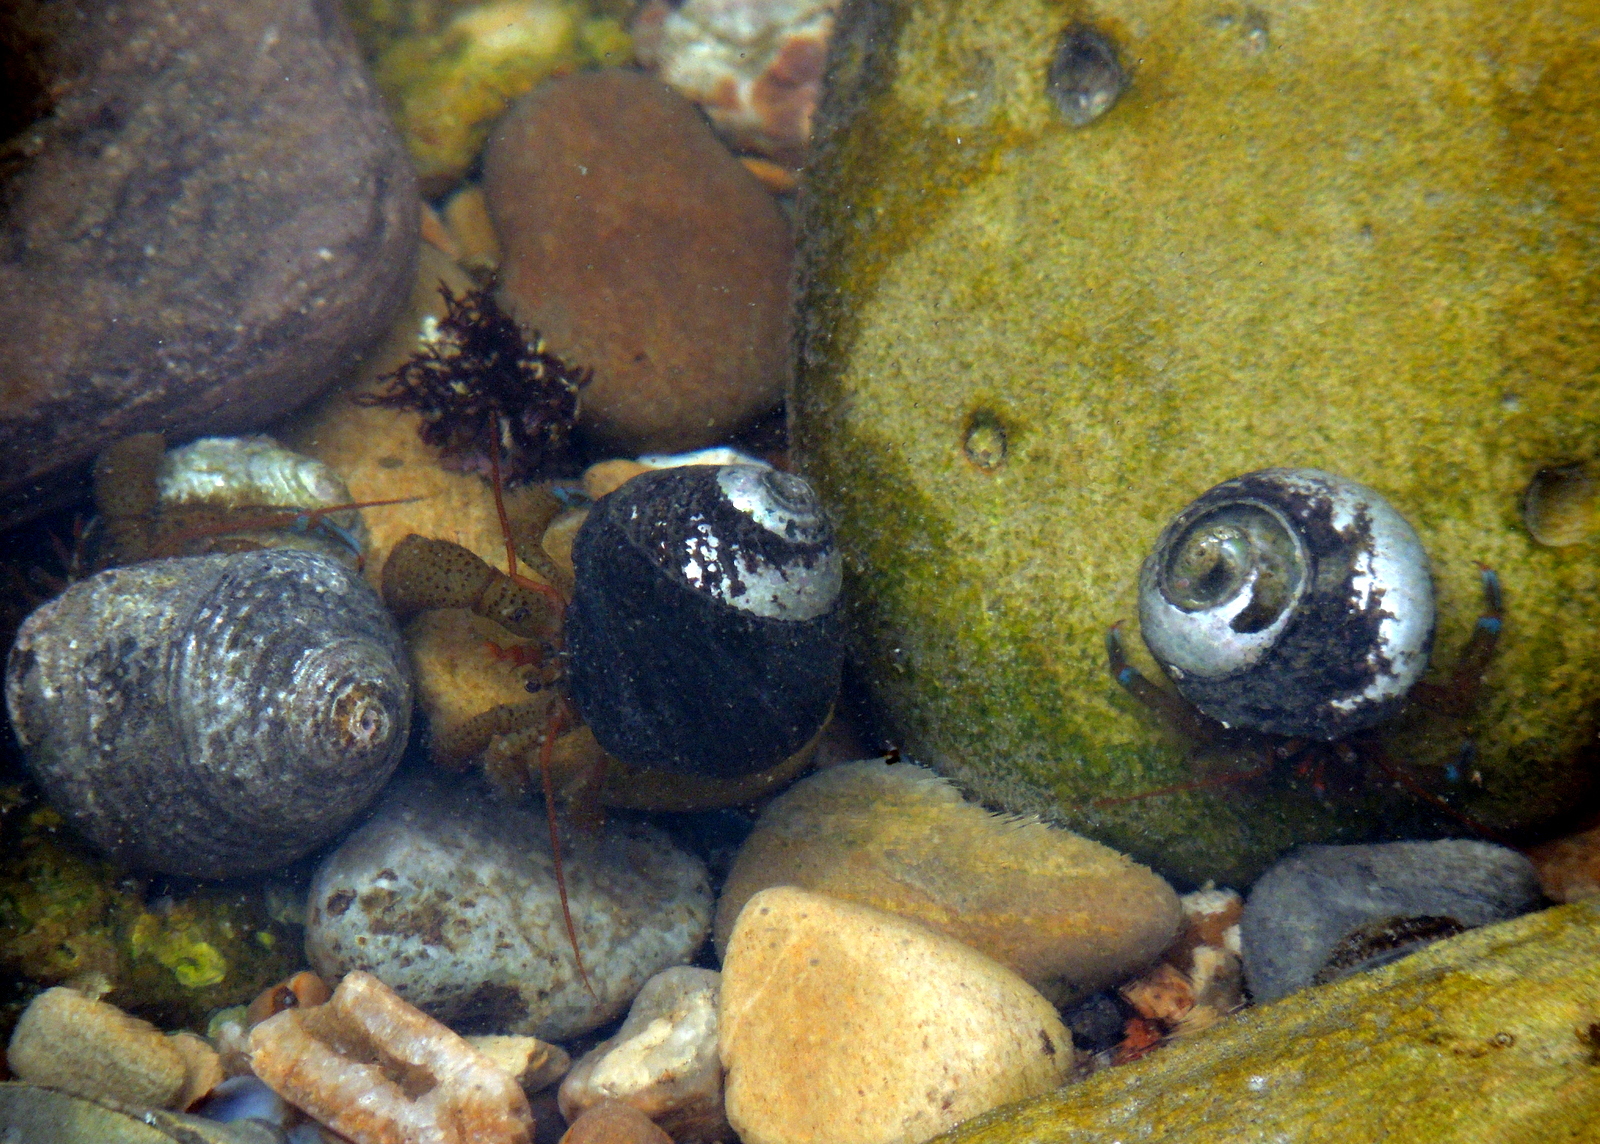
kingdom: Animalia
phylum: Arthropoda
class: Malacostraca
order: Decapoda
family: Paguridae
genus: Pagurus
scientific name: Pagurus samuelis
